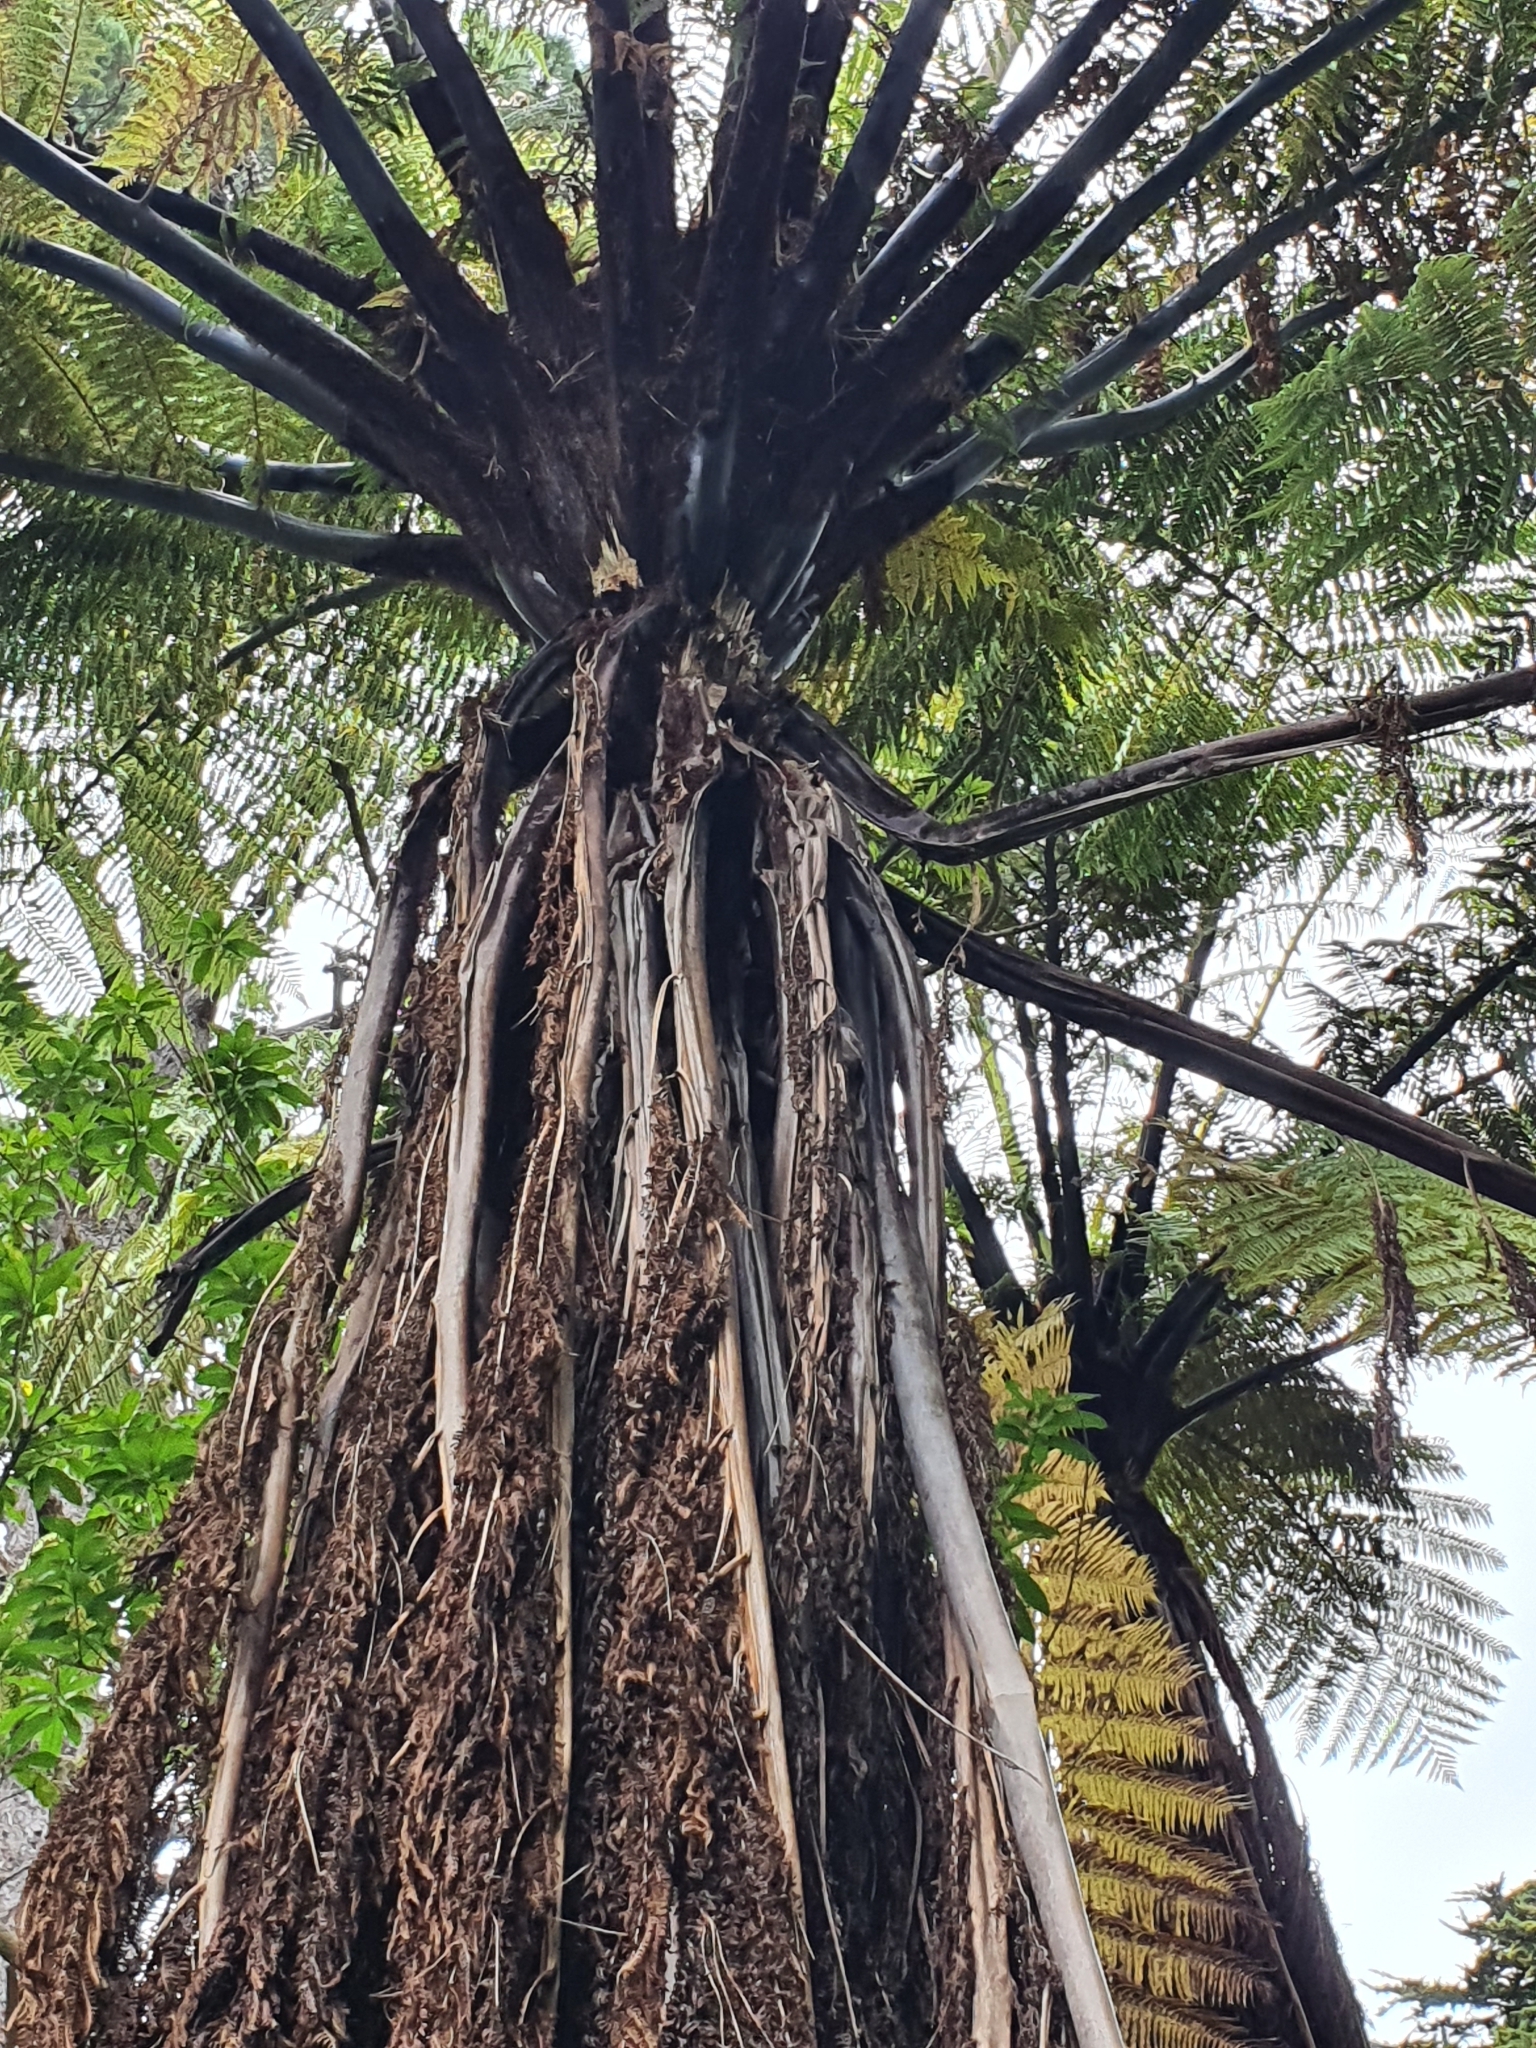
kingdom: Plantae
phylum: Tracheophyta
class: Polypodiopsida
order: Cyatheales
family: Cyatheaceae
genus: Sphaeropteris
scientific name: Sphaeropteris medullaris
